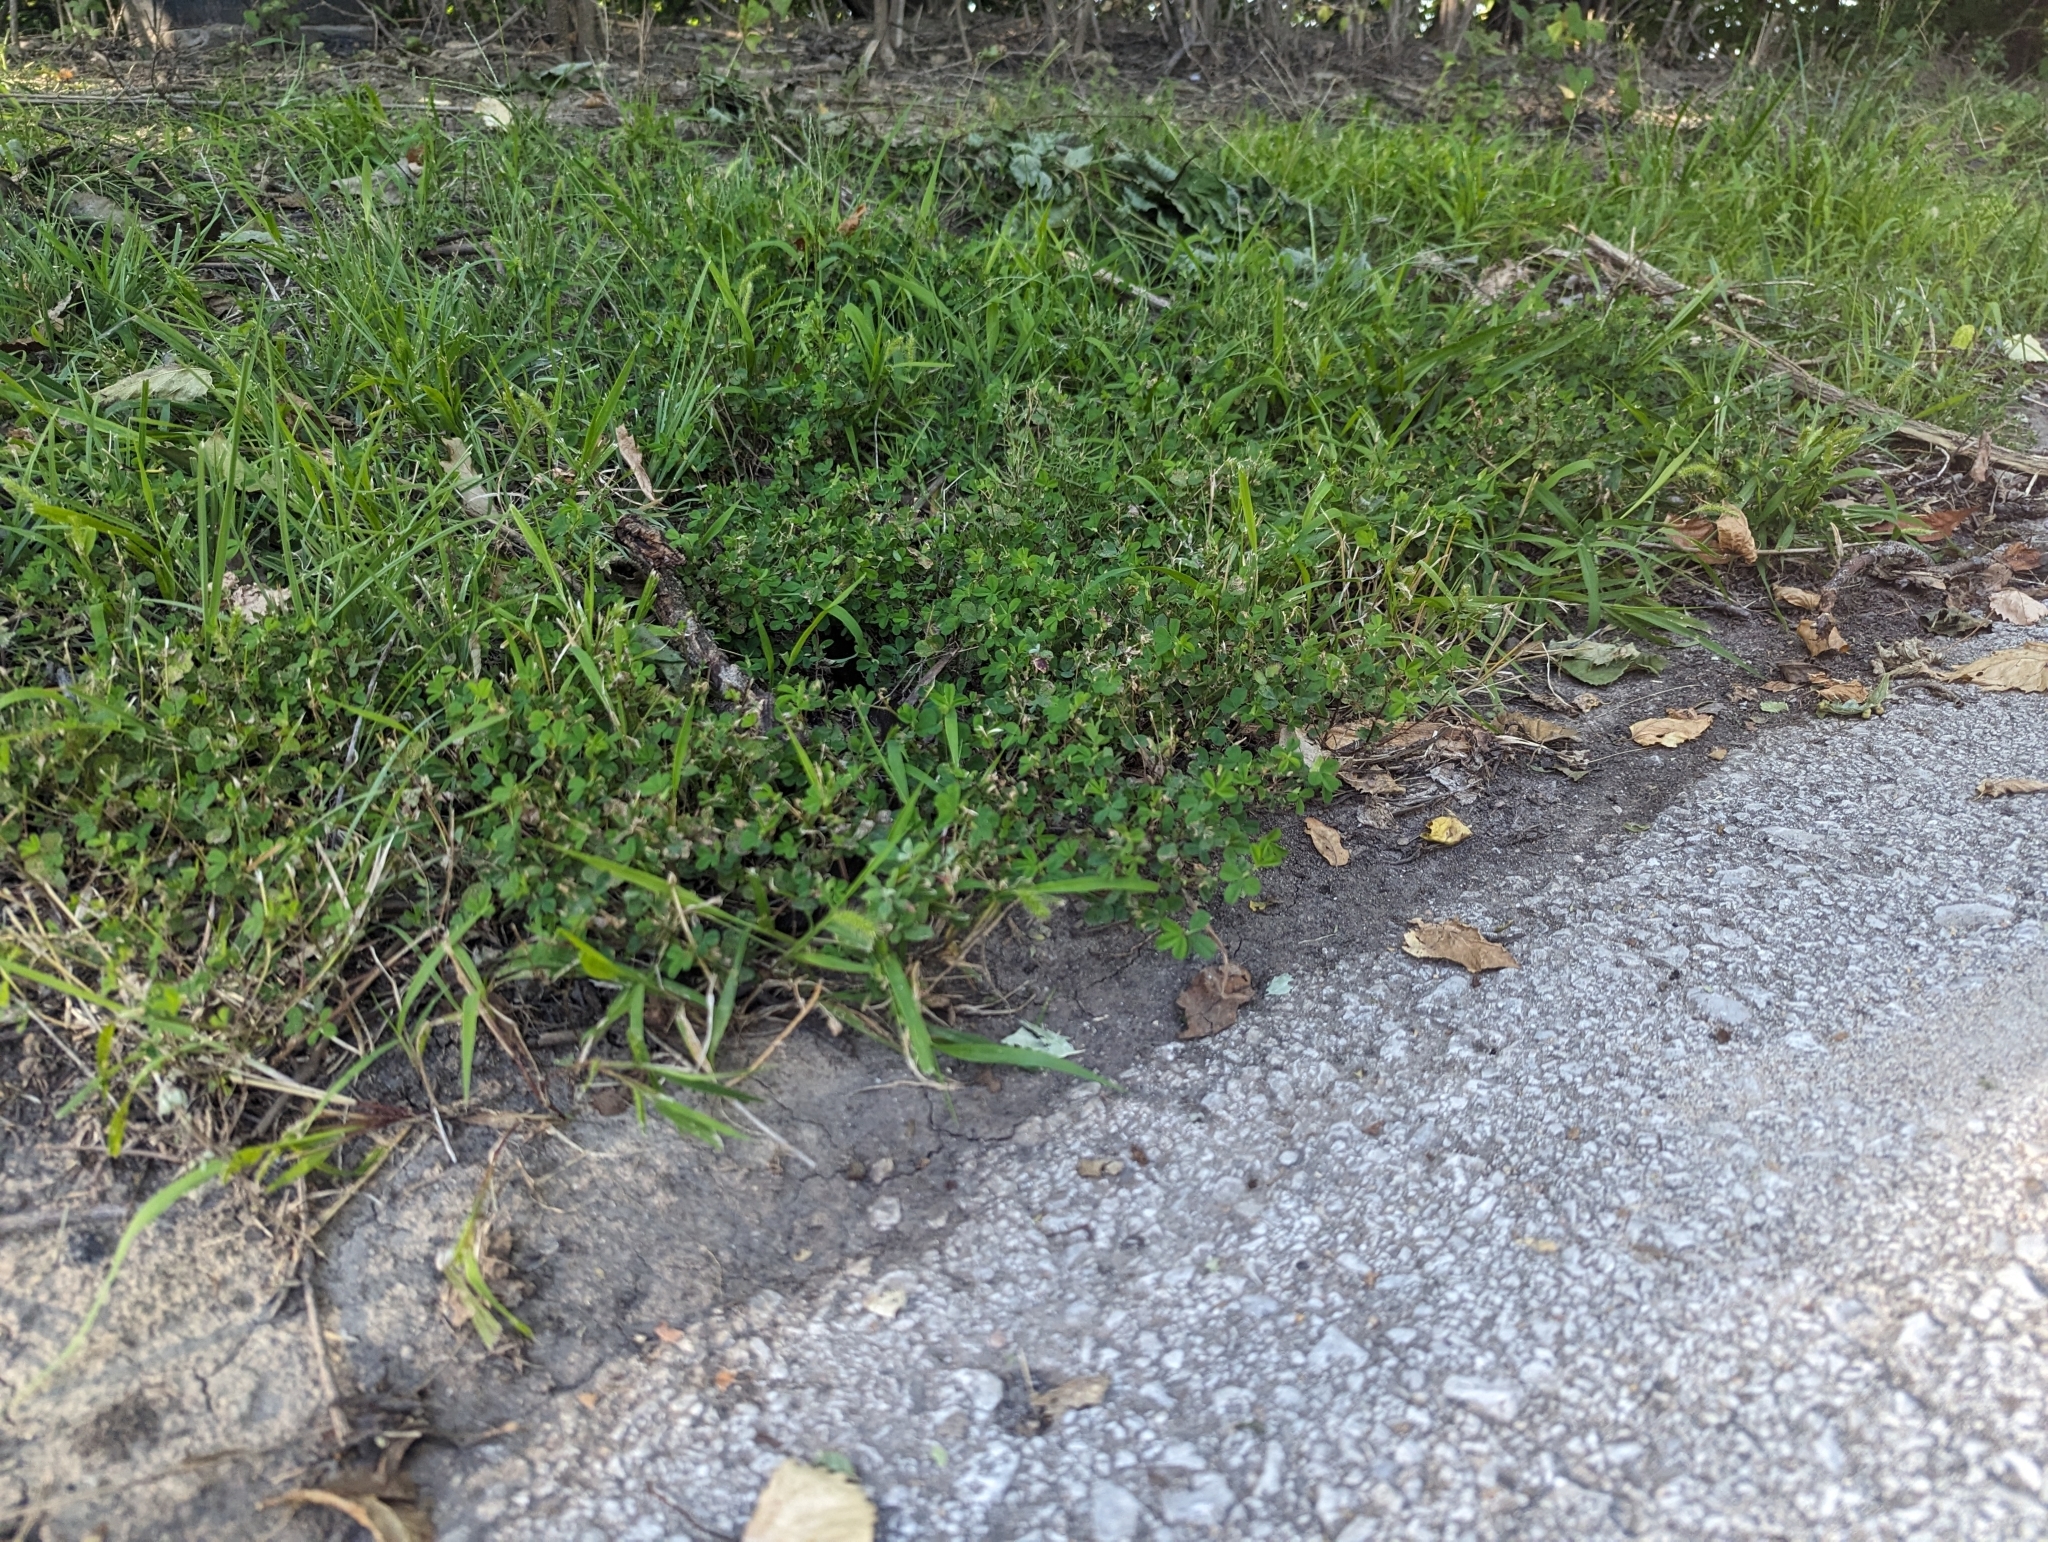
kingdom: Animalia
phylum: Chordata
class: Squamata
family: Colubridae
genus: Pantherophis
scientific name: Pantherophis obsoletus
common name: Black rat snake
